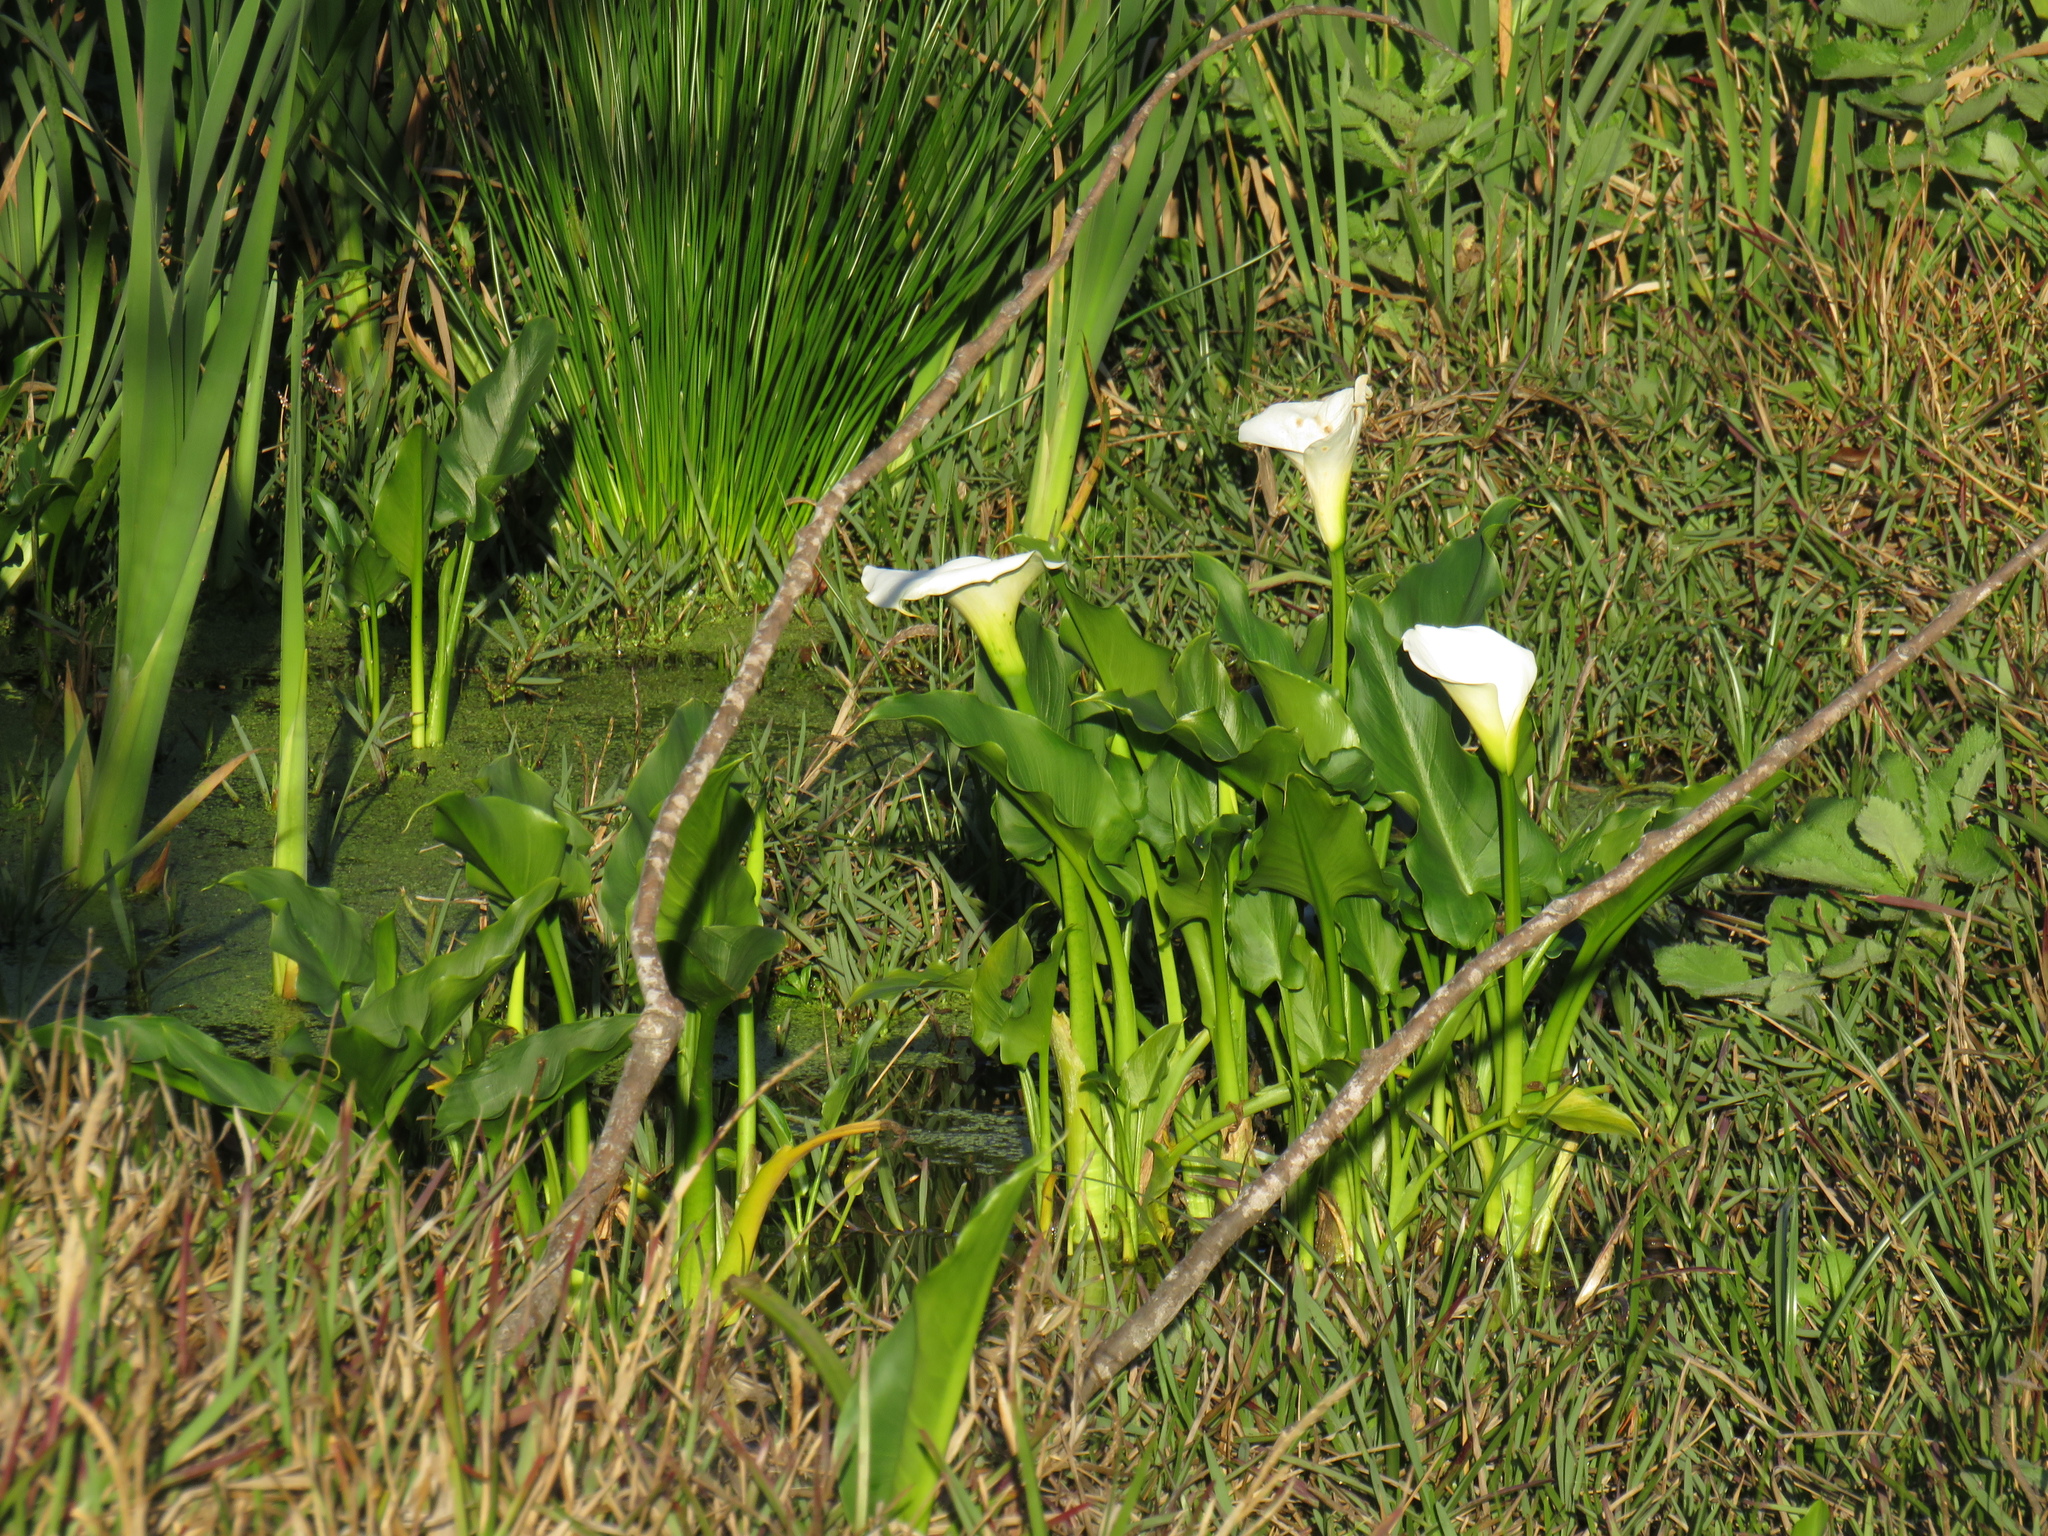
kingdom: Plantae
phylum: Tracheophyta
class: Liliopsida
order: Alismatales
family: Araceae
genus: Zantedeschia
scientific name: Zantedeschia aethiopica
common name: Altar-lily
